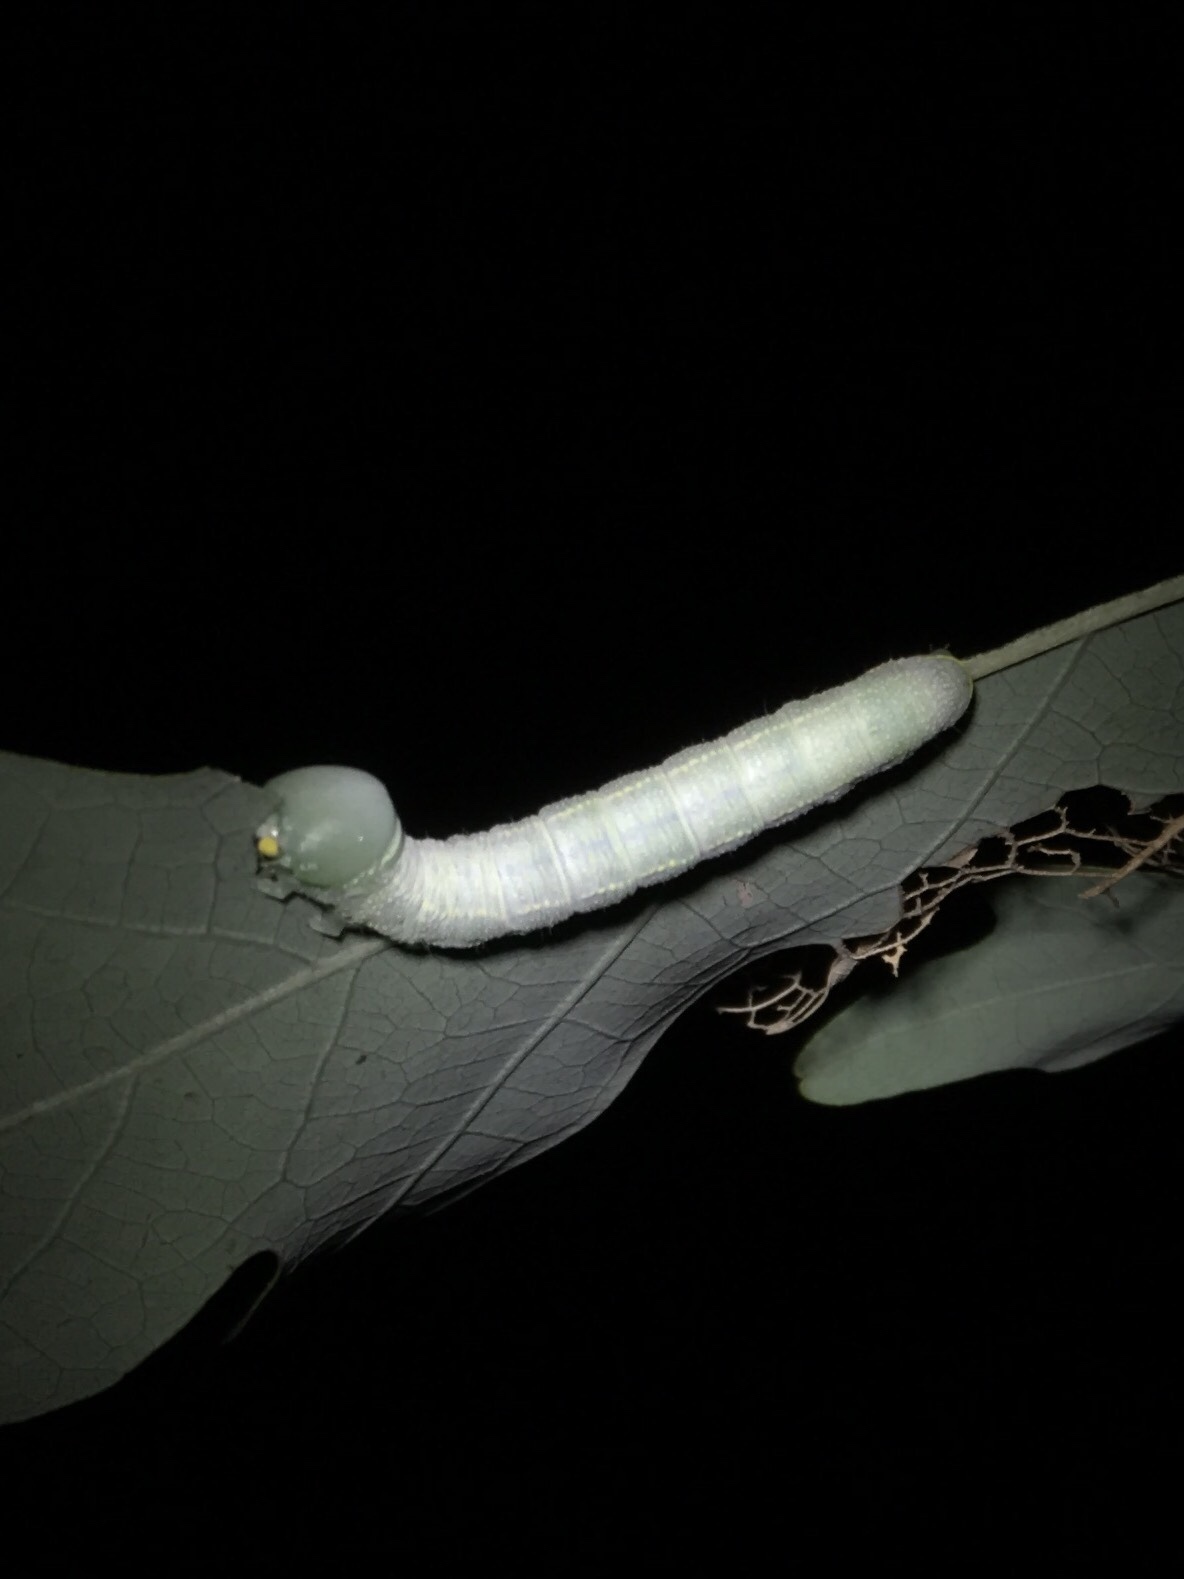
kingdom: Animalia
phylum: Arthropoda
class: Insecta
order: Lepidoptera
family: Notodontidae
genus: Nadata
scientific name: Nadata gibbosa
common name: White-dotted prominent
